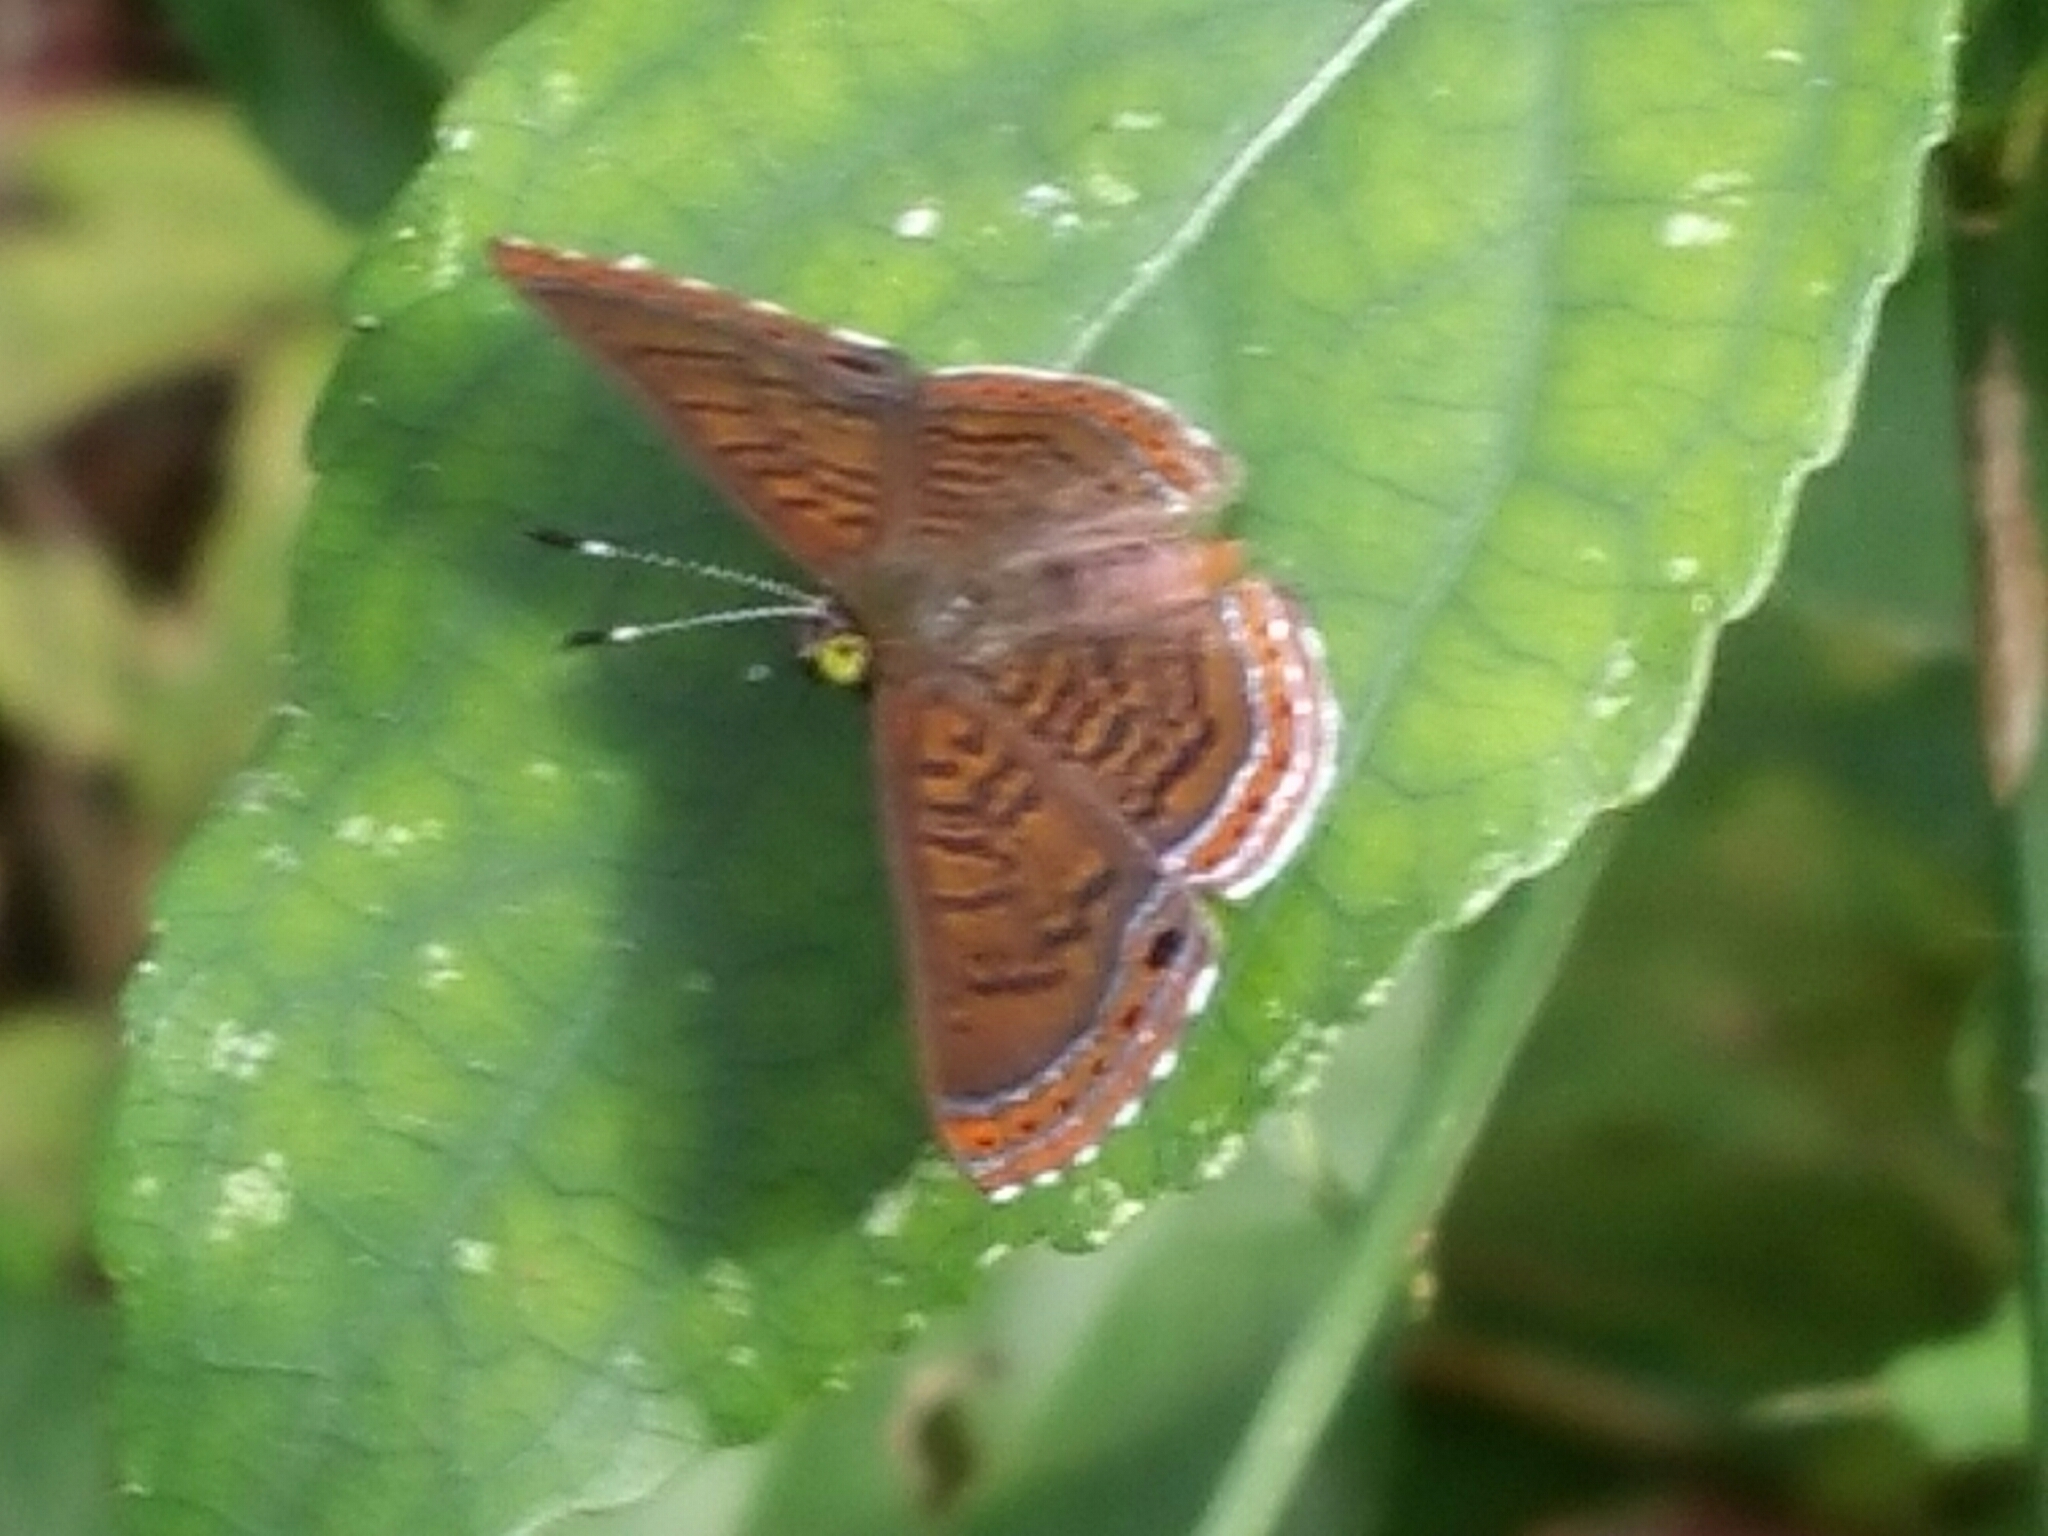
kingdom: Animalia
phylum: Arthropoda
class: Insecta
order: Lepidoptera
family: Riodinidae
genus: Detritivora
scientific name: Detritivora
